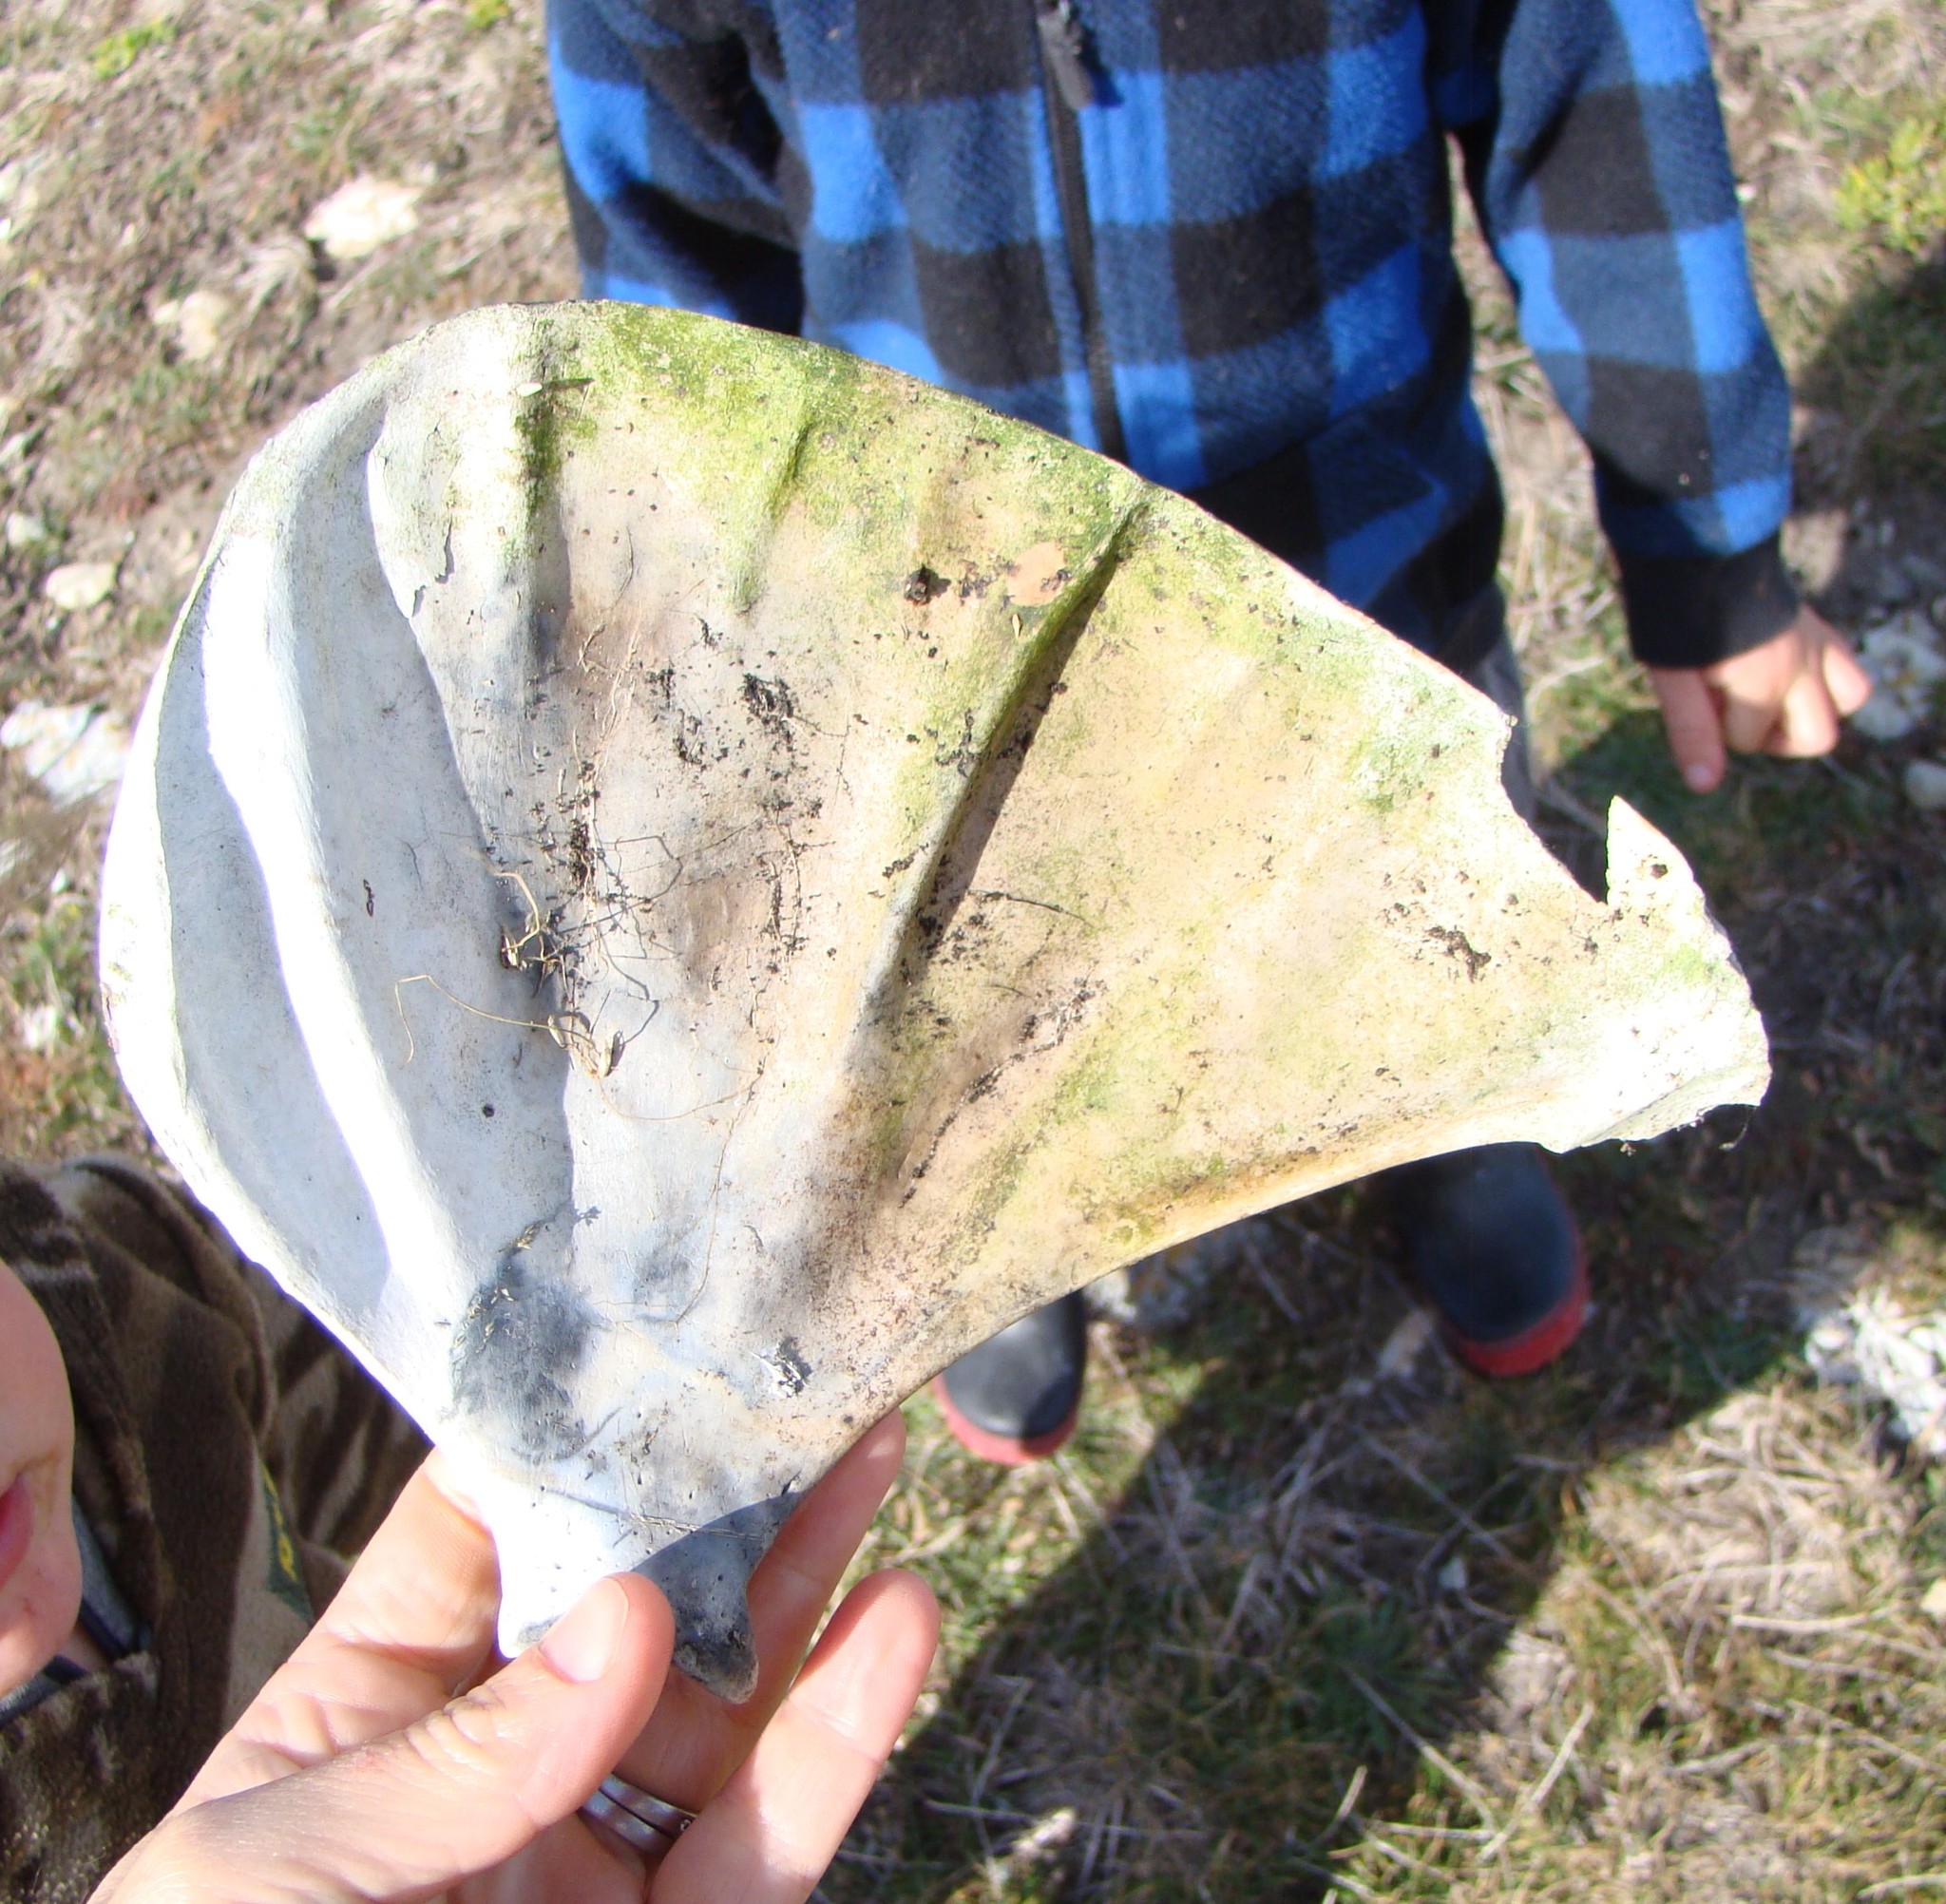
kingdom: Animalia
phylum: Chordata
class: Mammalia
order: Carnivora
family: Otariidae
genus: Arctocephalus
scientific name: Arctocephalus forsteri
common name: New zealand fur seal
